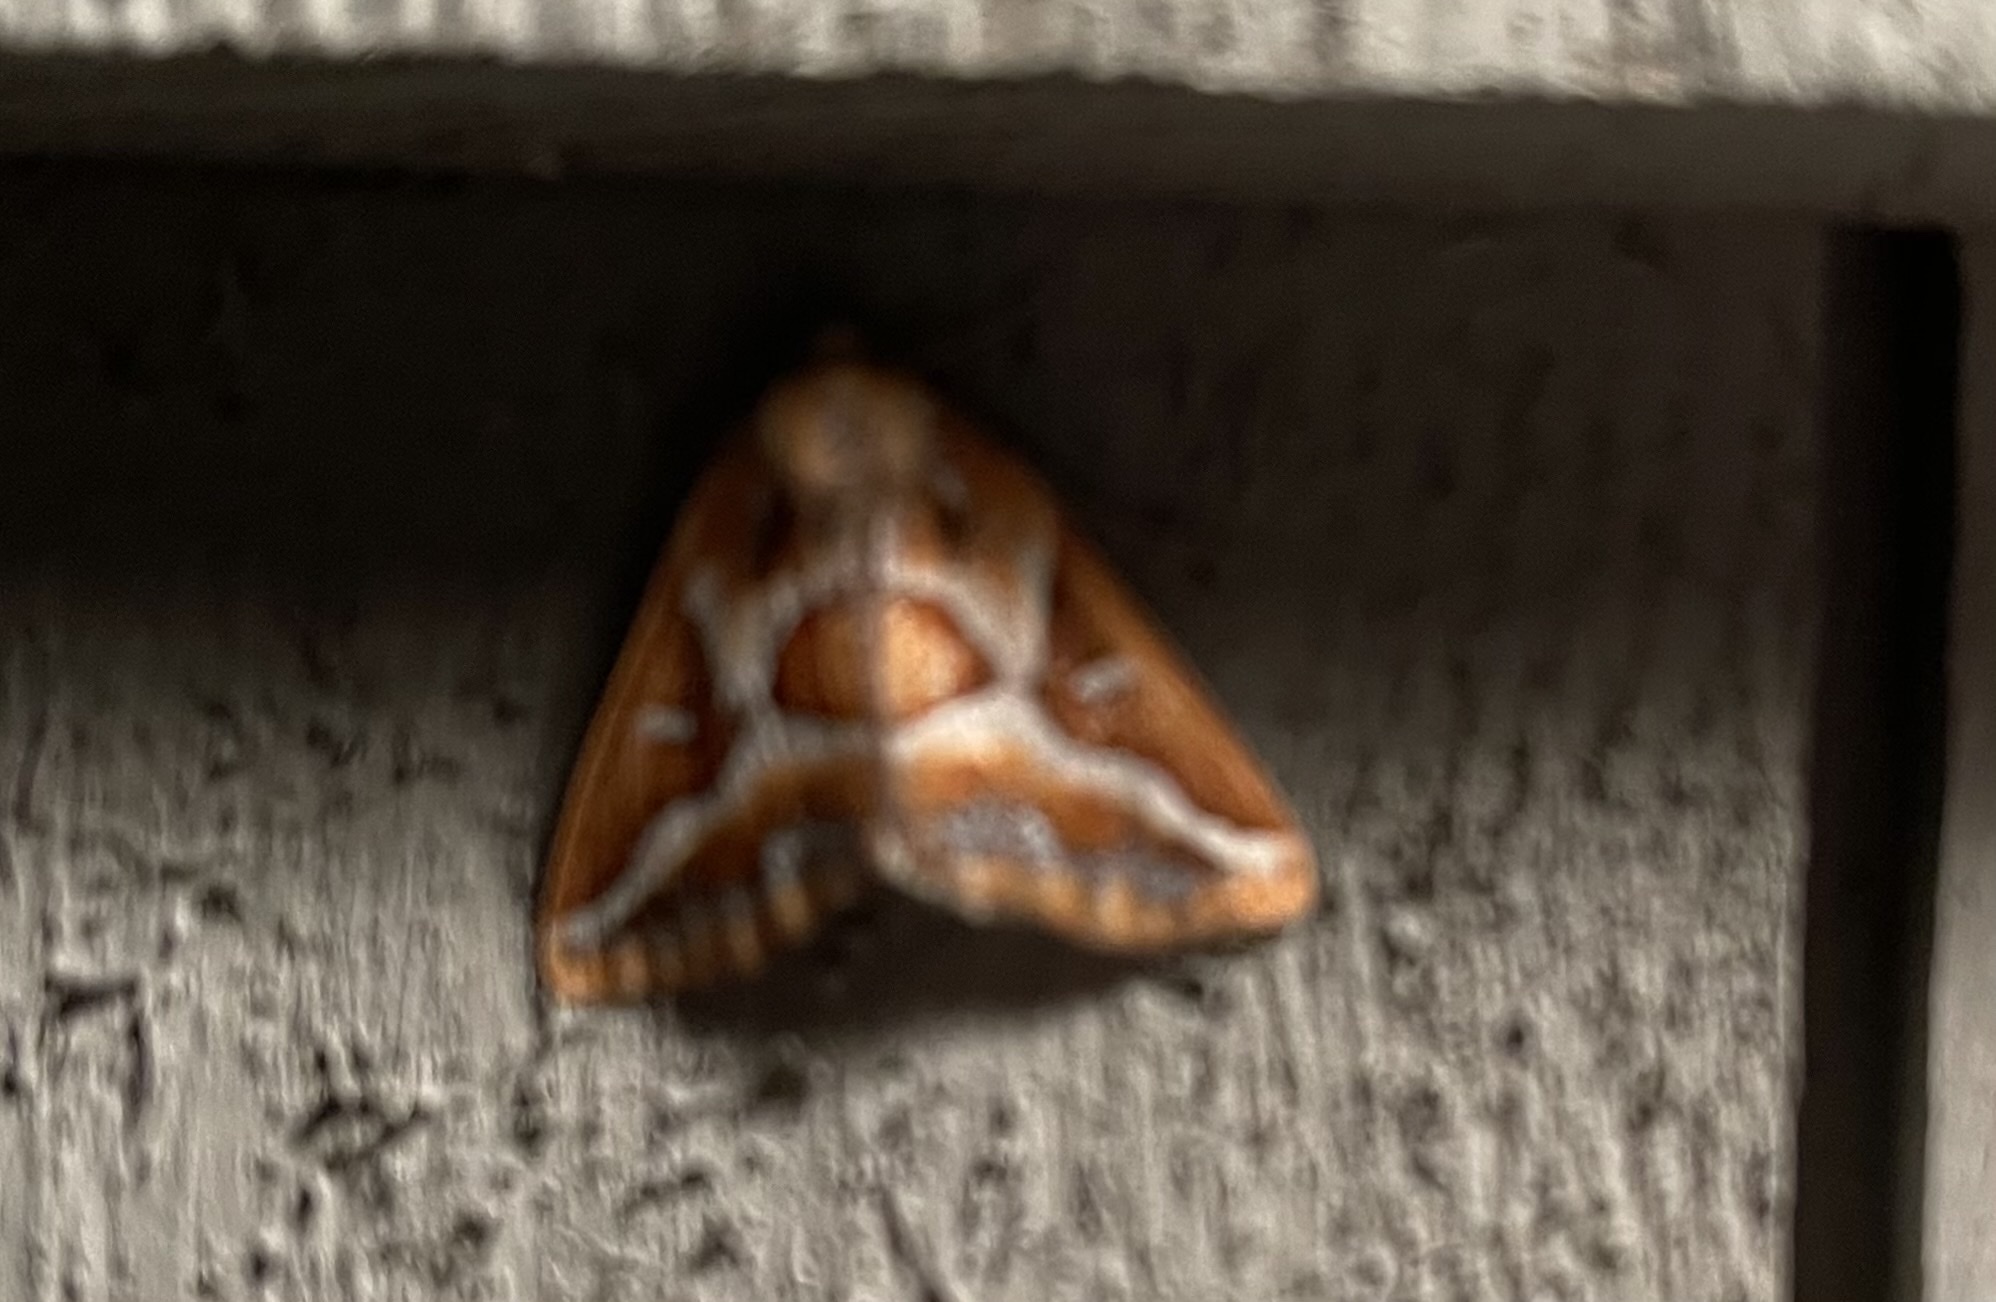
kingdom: Animalia
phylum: Arthropoda
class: Insecta
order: Lepidoptera
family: Geometridae
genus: Caripeta
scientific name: Caripeta angustiorata
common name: Brown pine looper
